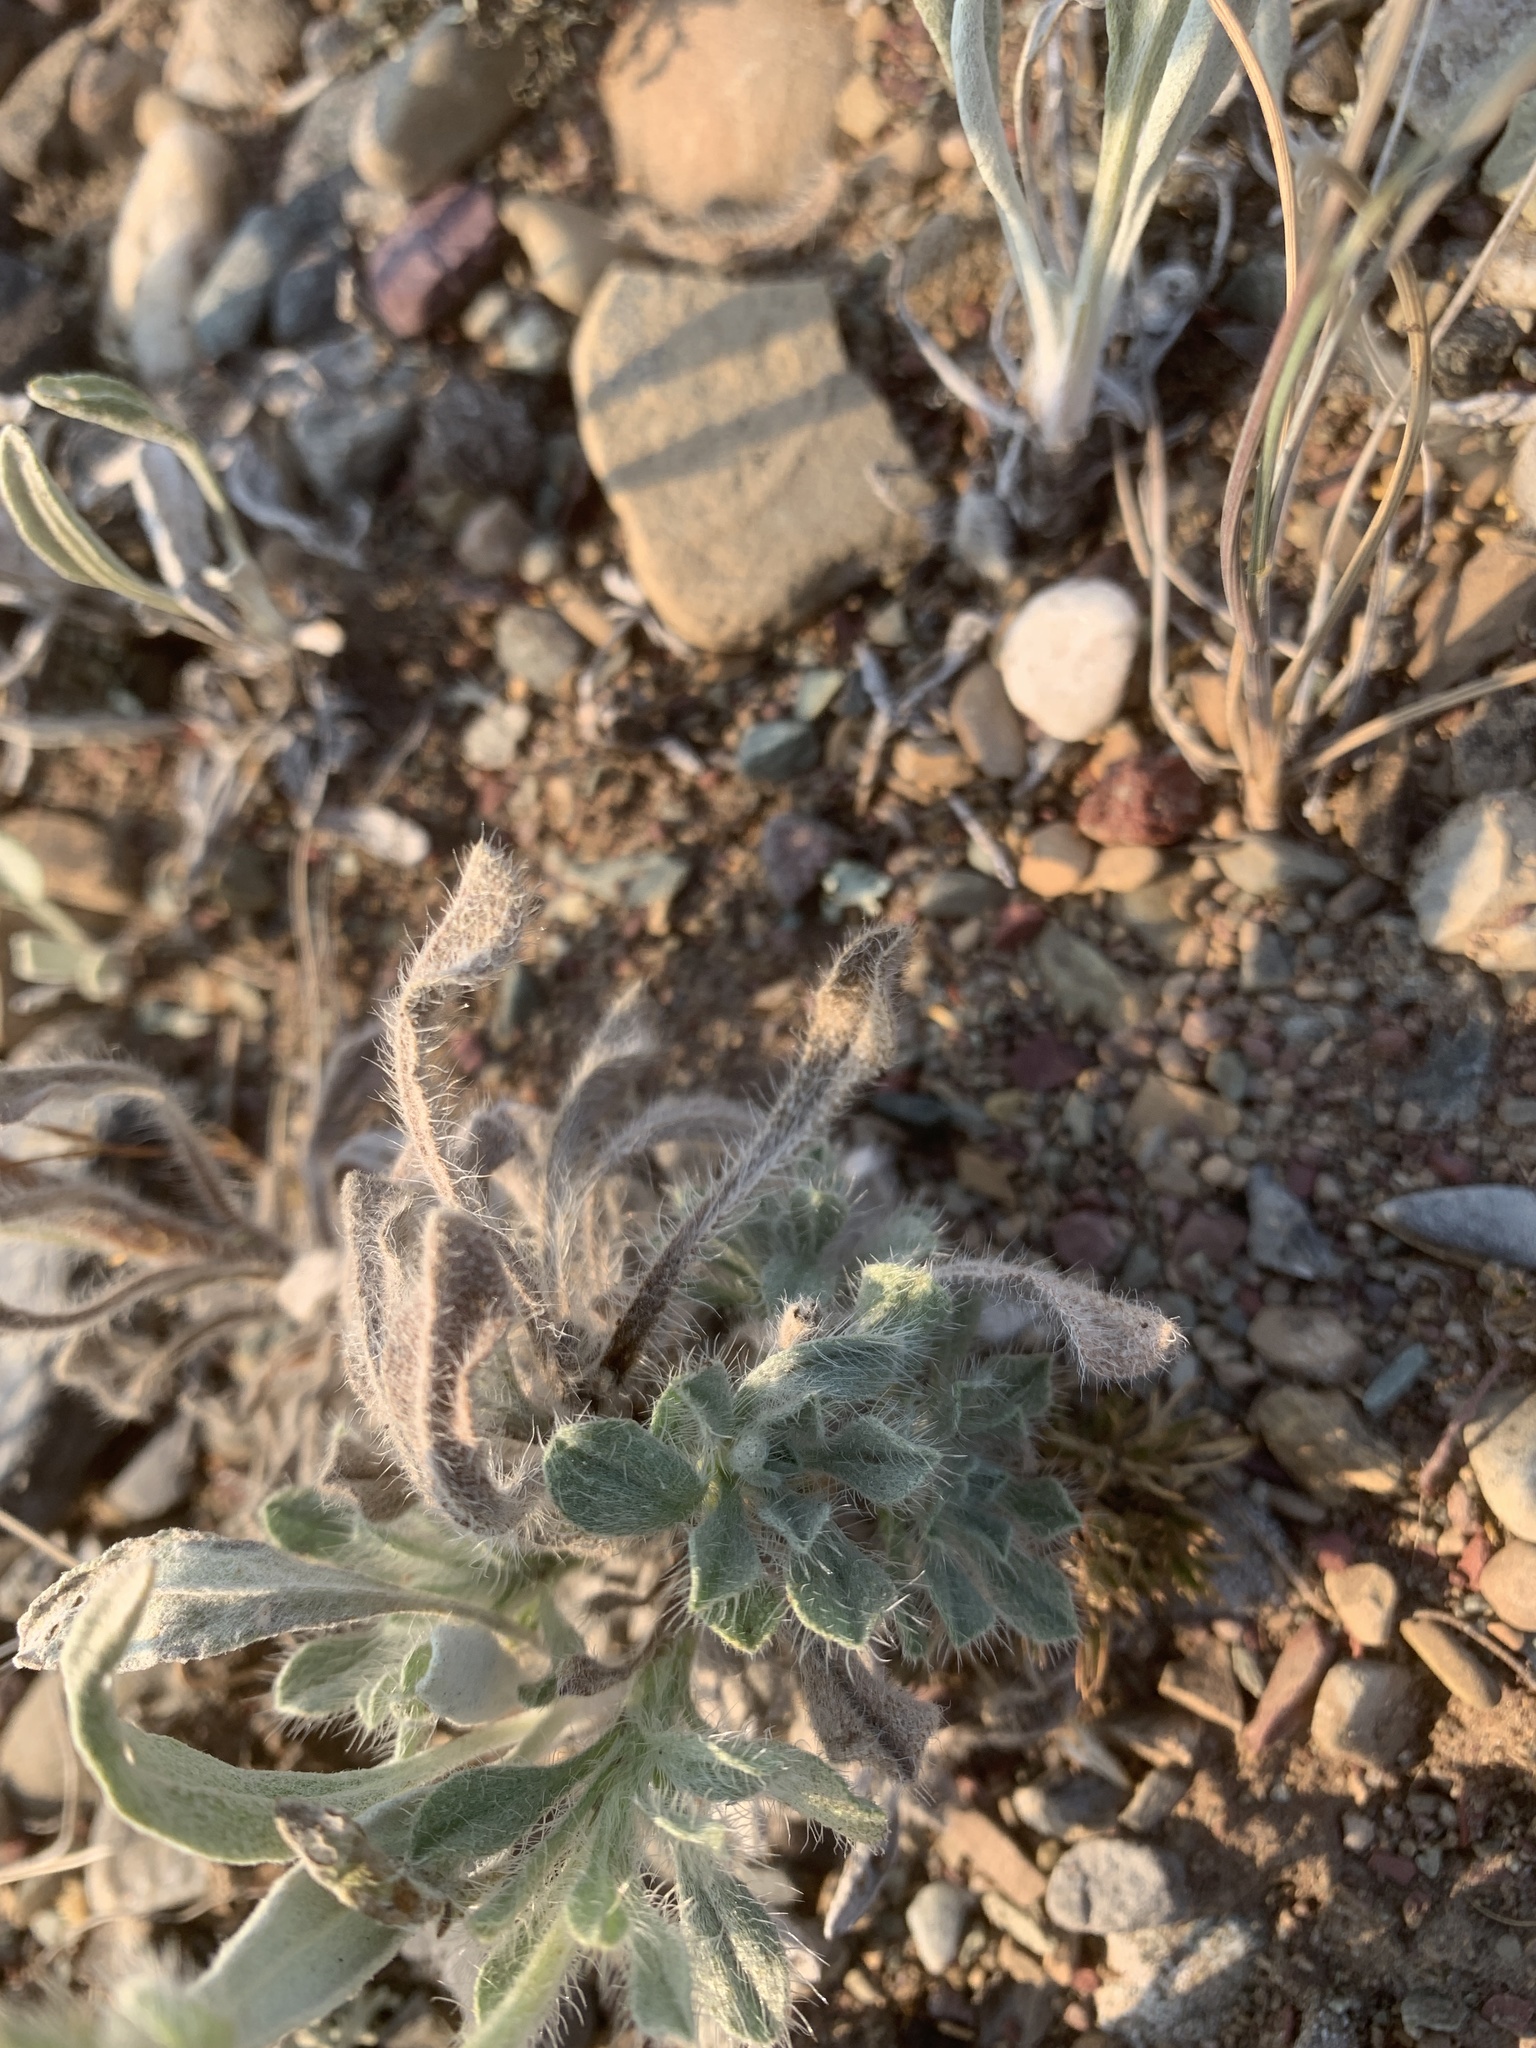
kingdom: Plantae
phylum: Tracheophyta
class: Magnoliopsida
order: Boraginales
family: Boraginaceae
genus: Oreocarya
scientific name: Oreocarya glomerata
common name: Macoun's cryptantha
